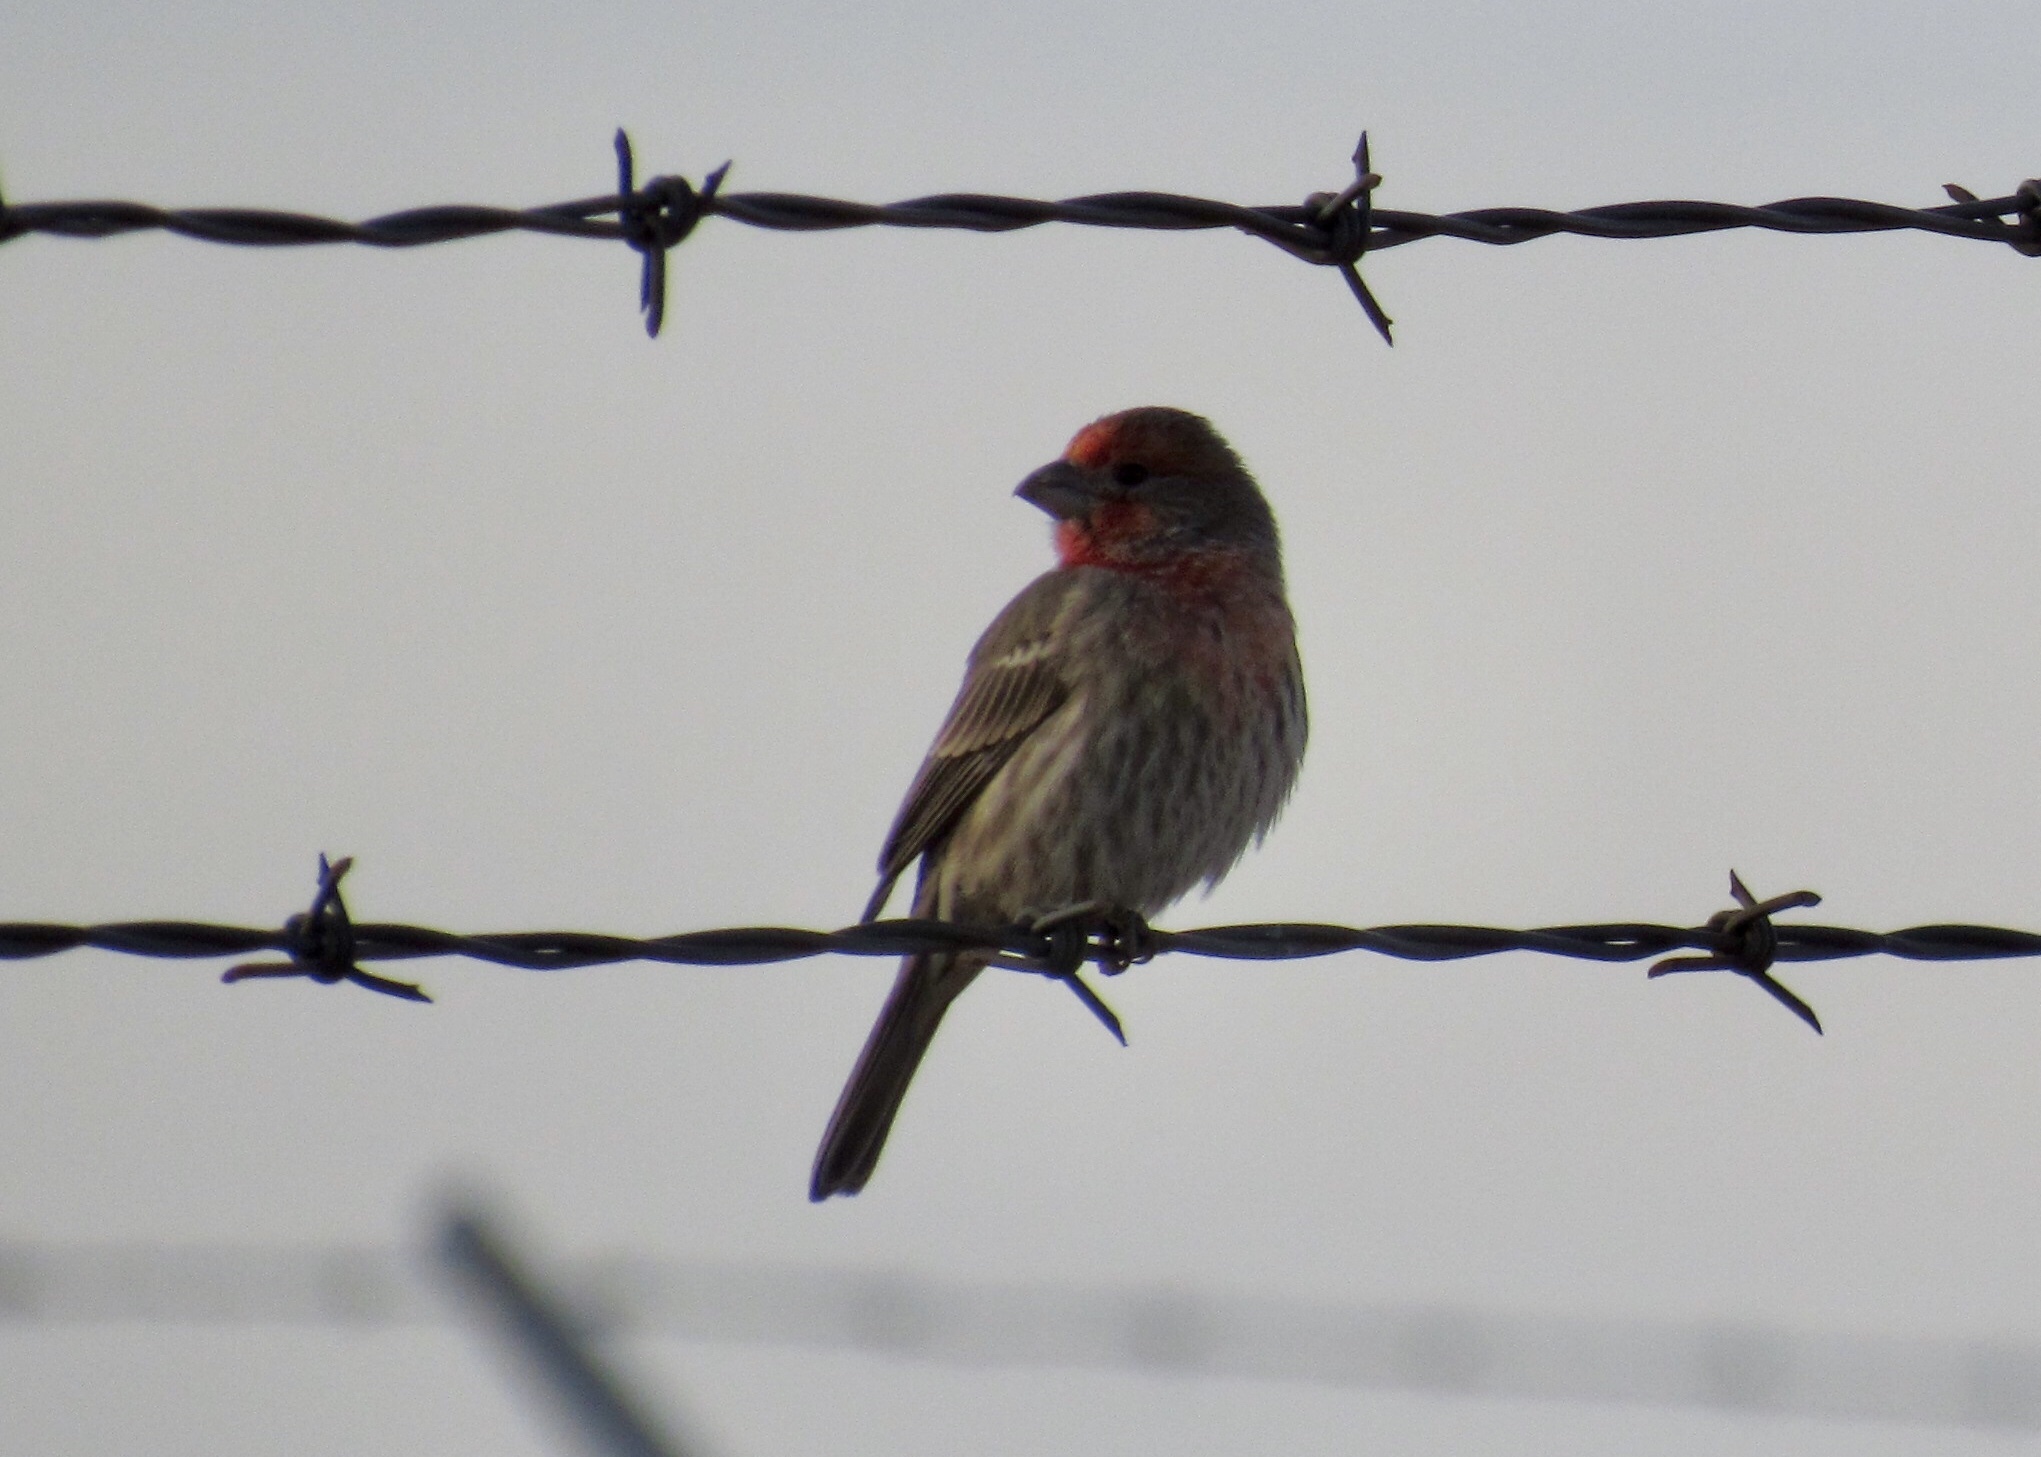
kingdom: Animalia
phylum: Chordata
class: Aves
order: Passeriformes
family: Fringillidae
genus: Haemorhous
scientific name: Haemorhous mexicanus
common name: House finch
